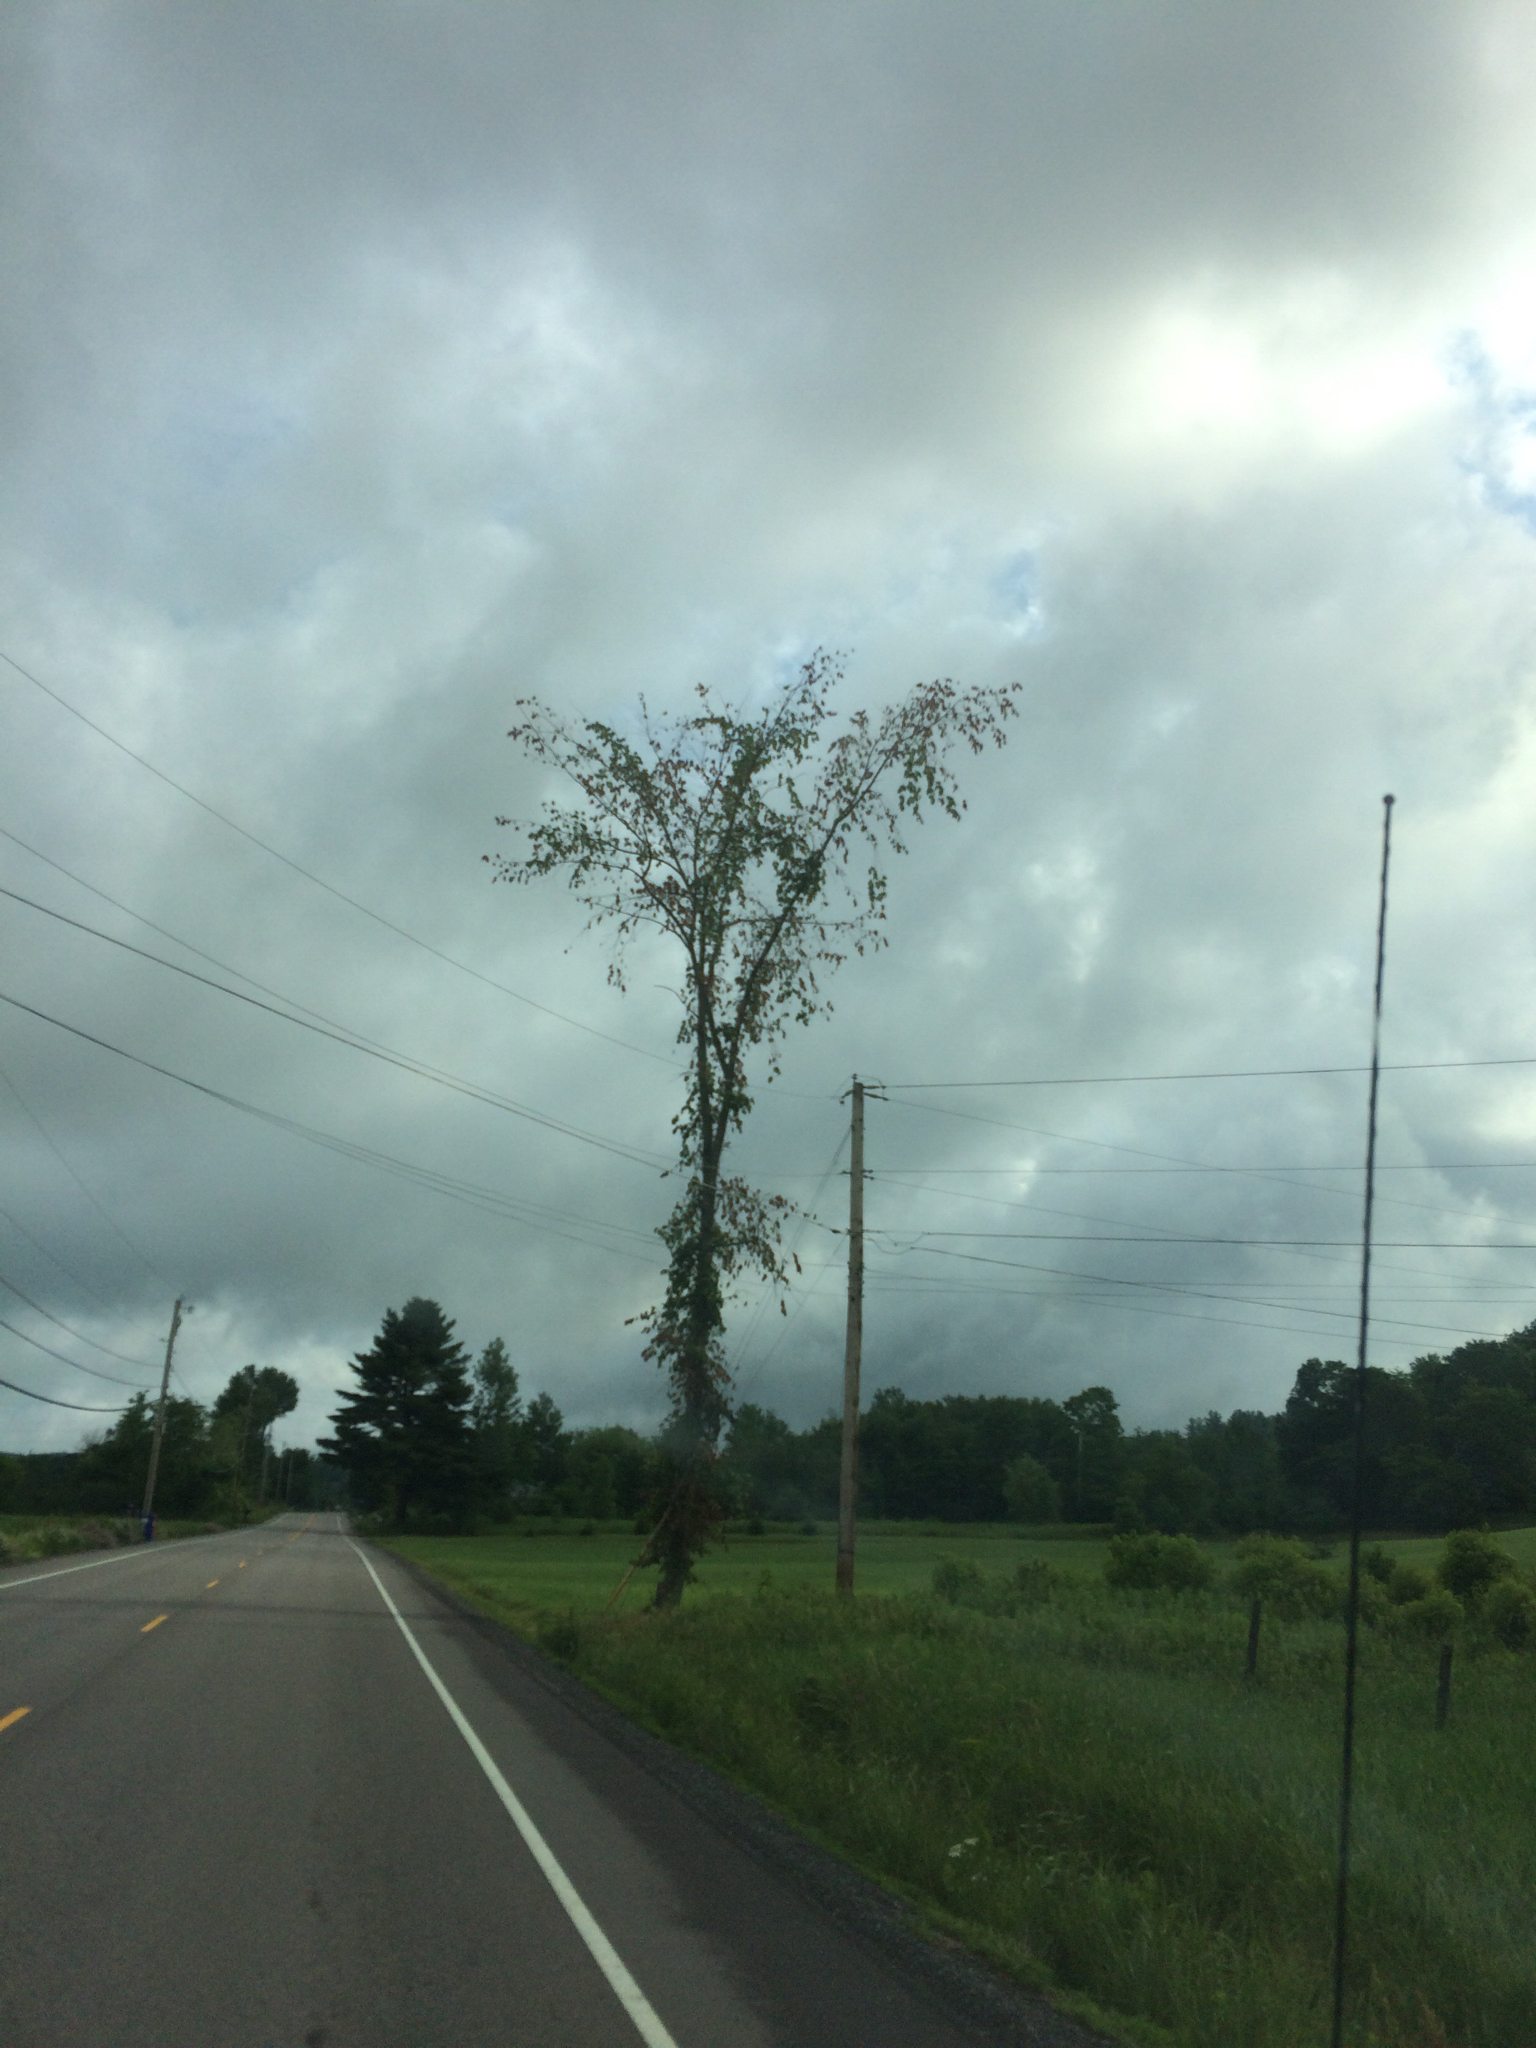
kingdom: Plantae
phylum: Tracheophyta
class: Magnoliopsida
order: Rosales
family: Ulmaceae
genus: Ulmus
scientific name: Ulmus americana
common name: American elm
